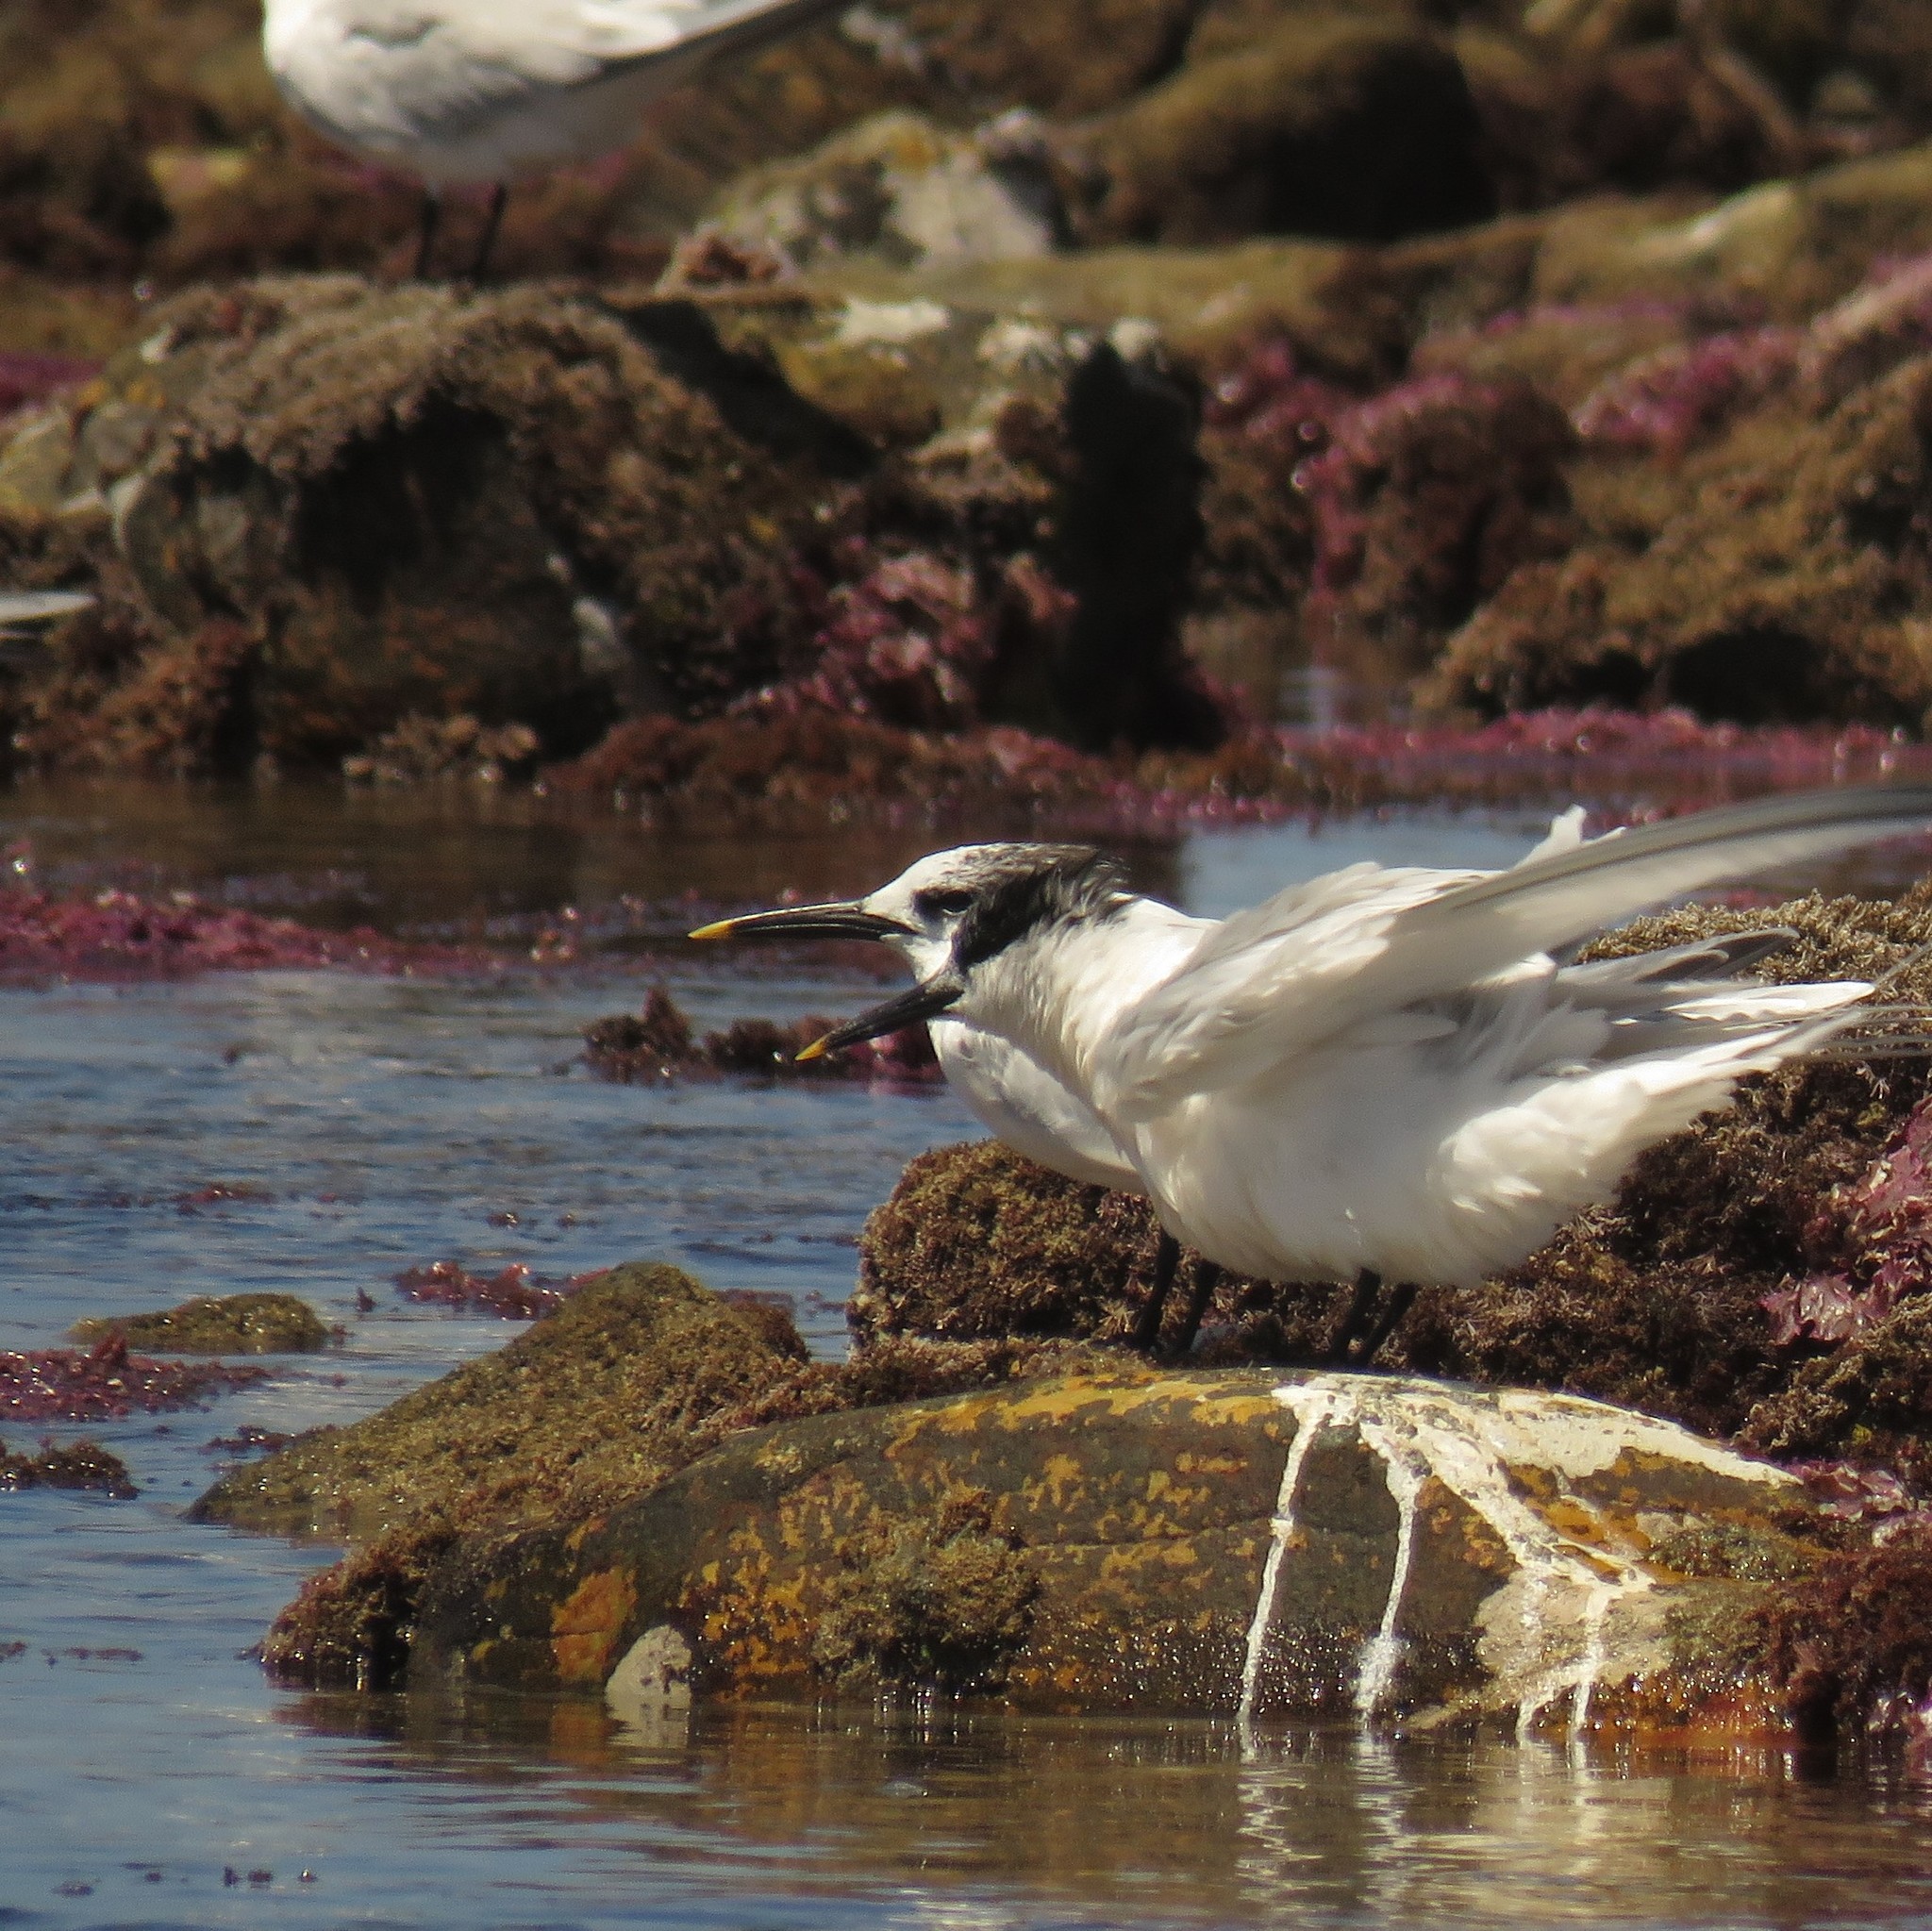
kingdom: Animalia
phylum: Chordata
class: Aves
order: Charadriiformes
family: Laridae
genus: Thalasseus
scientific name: Thalasseus sandvicensis
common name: Sandwich tern
